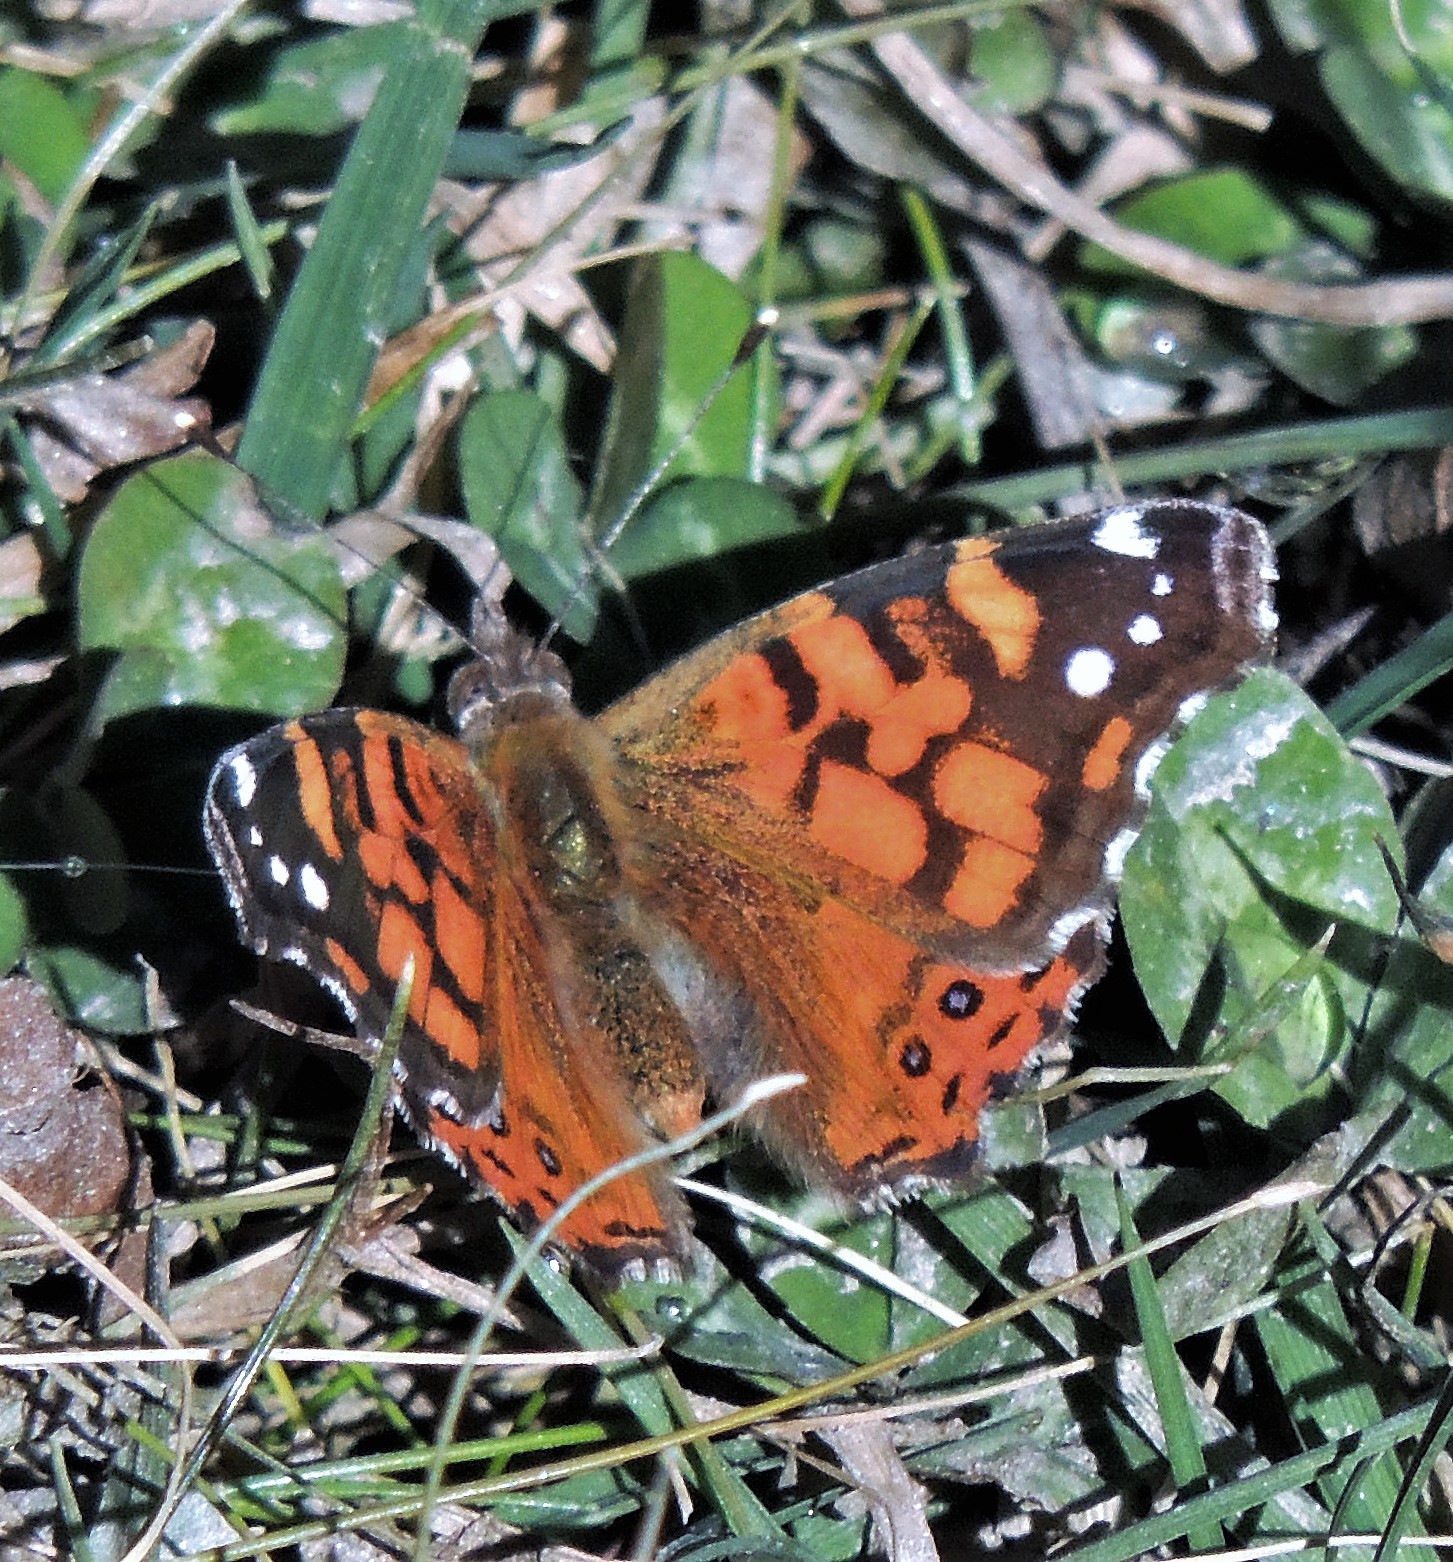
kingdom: Animalia
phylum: Arthropoda
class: Insecta
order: Lepidoptera
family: Nymphalidae
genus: Vanessa
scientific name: Vanessa carye
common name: Subtropical lady
